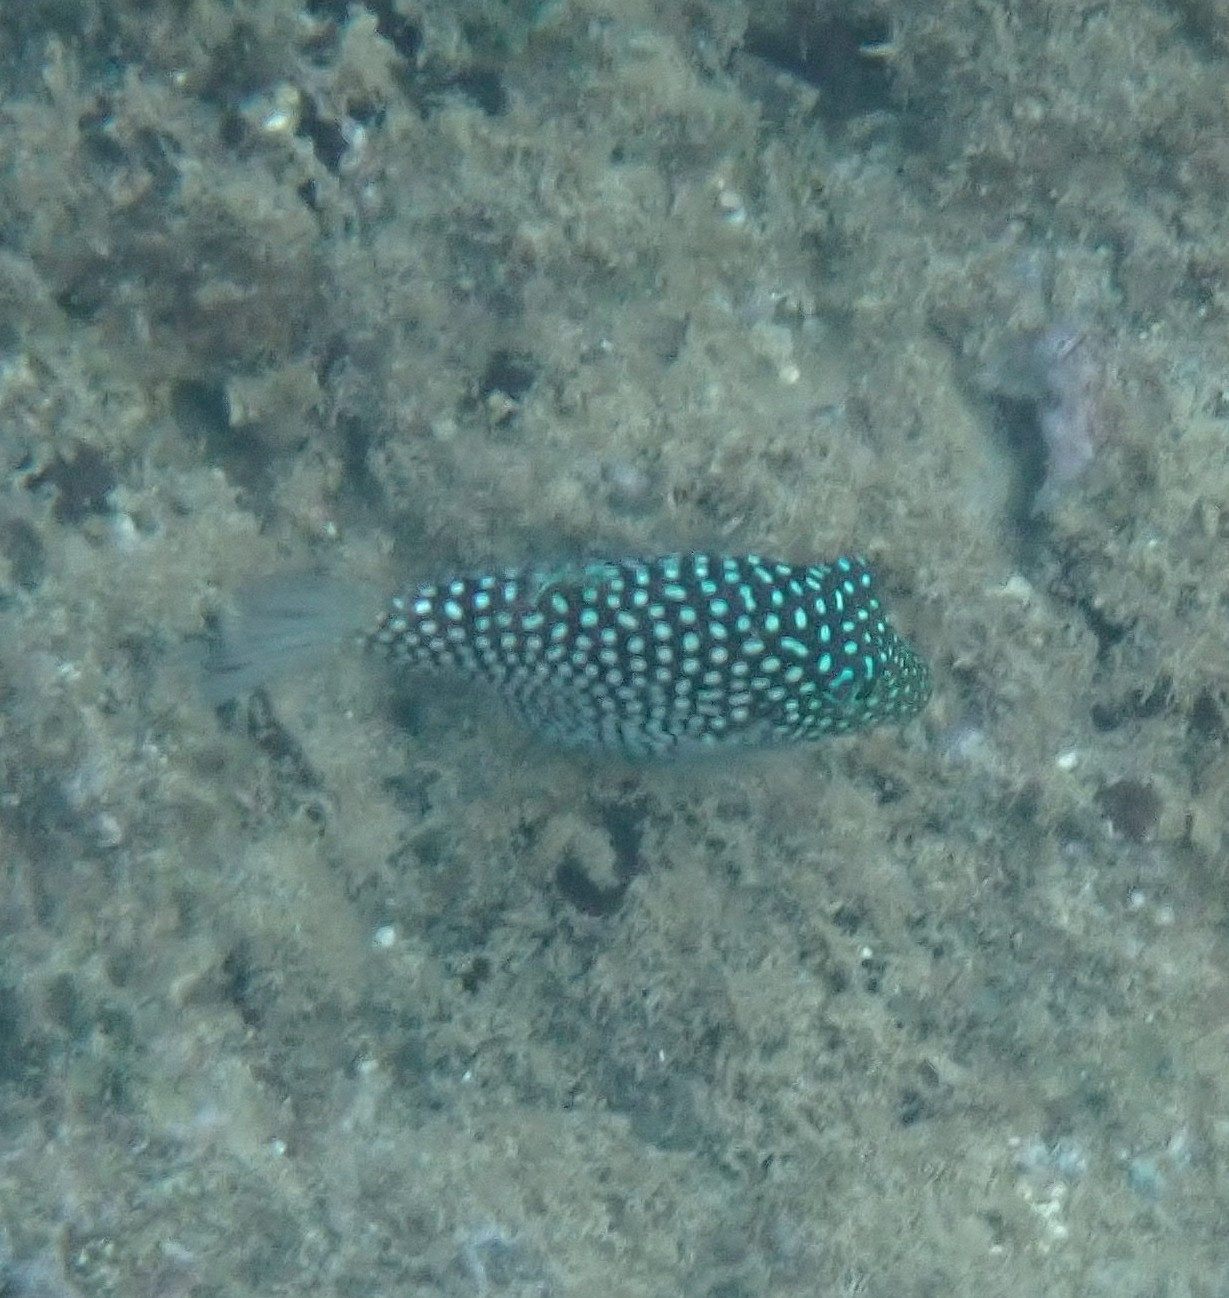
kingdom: Animalia
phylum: Chordata
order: Tetraodontiformes
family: Tetraodontidae
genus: Canthigaster
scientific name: Canthigaster jactator
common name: Hawaiian whitespotted toby
